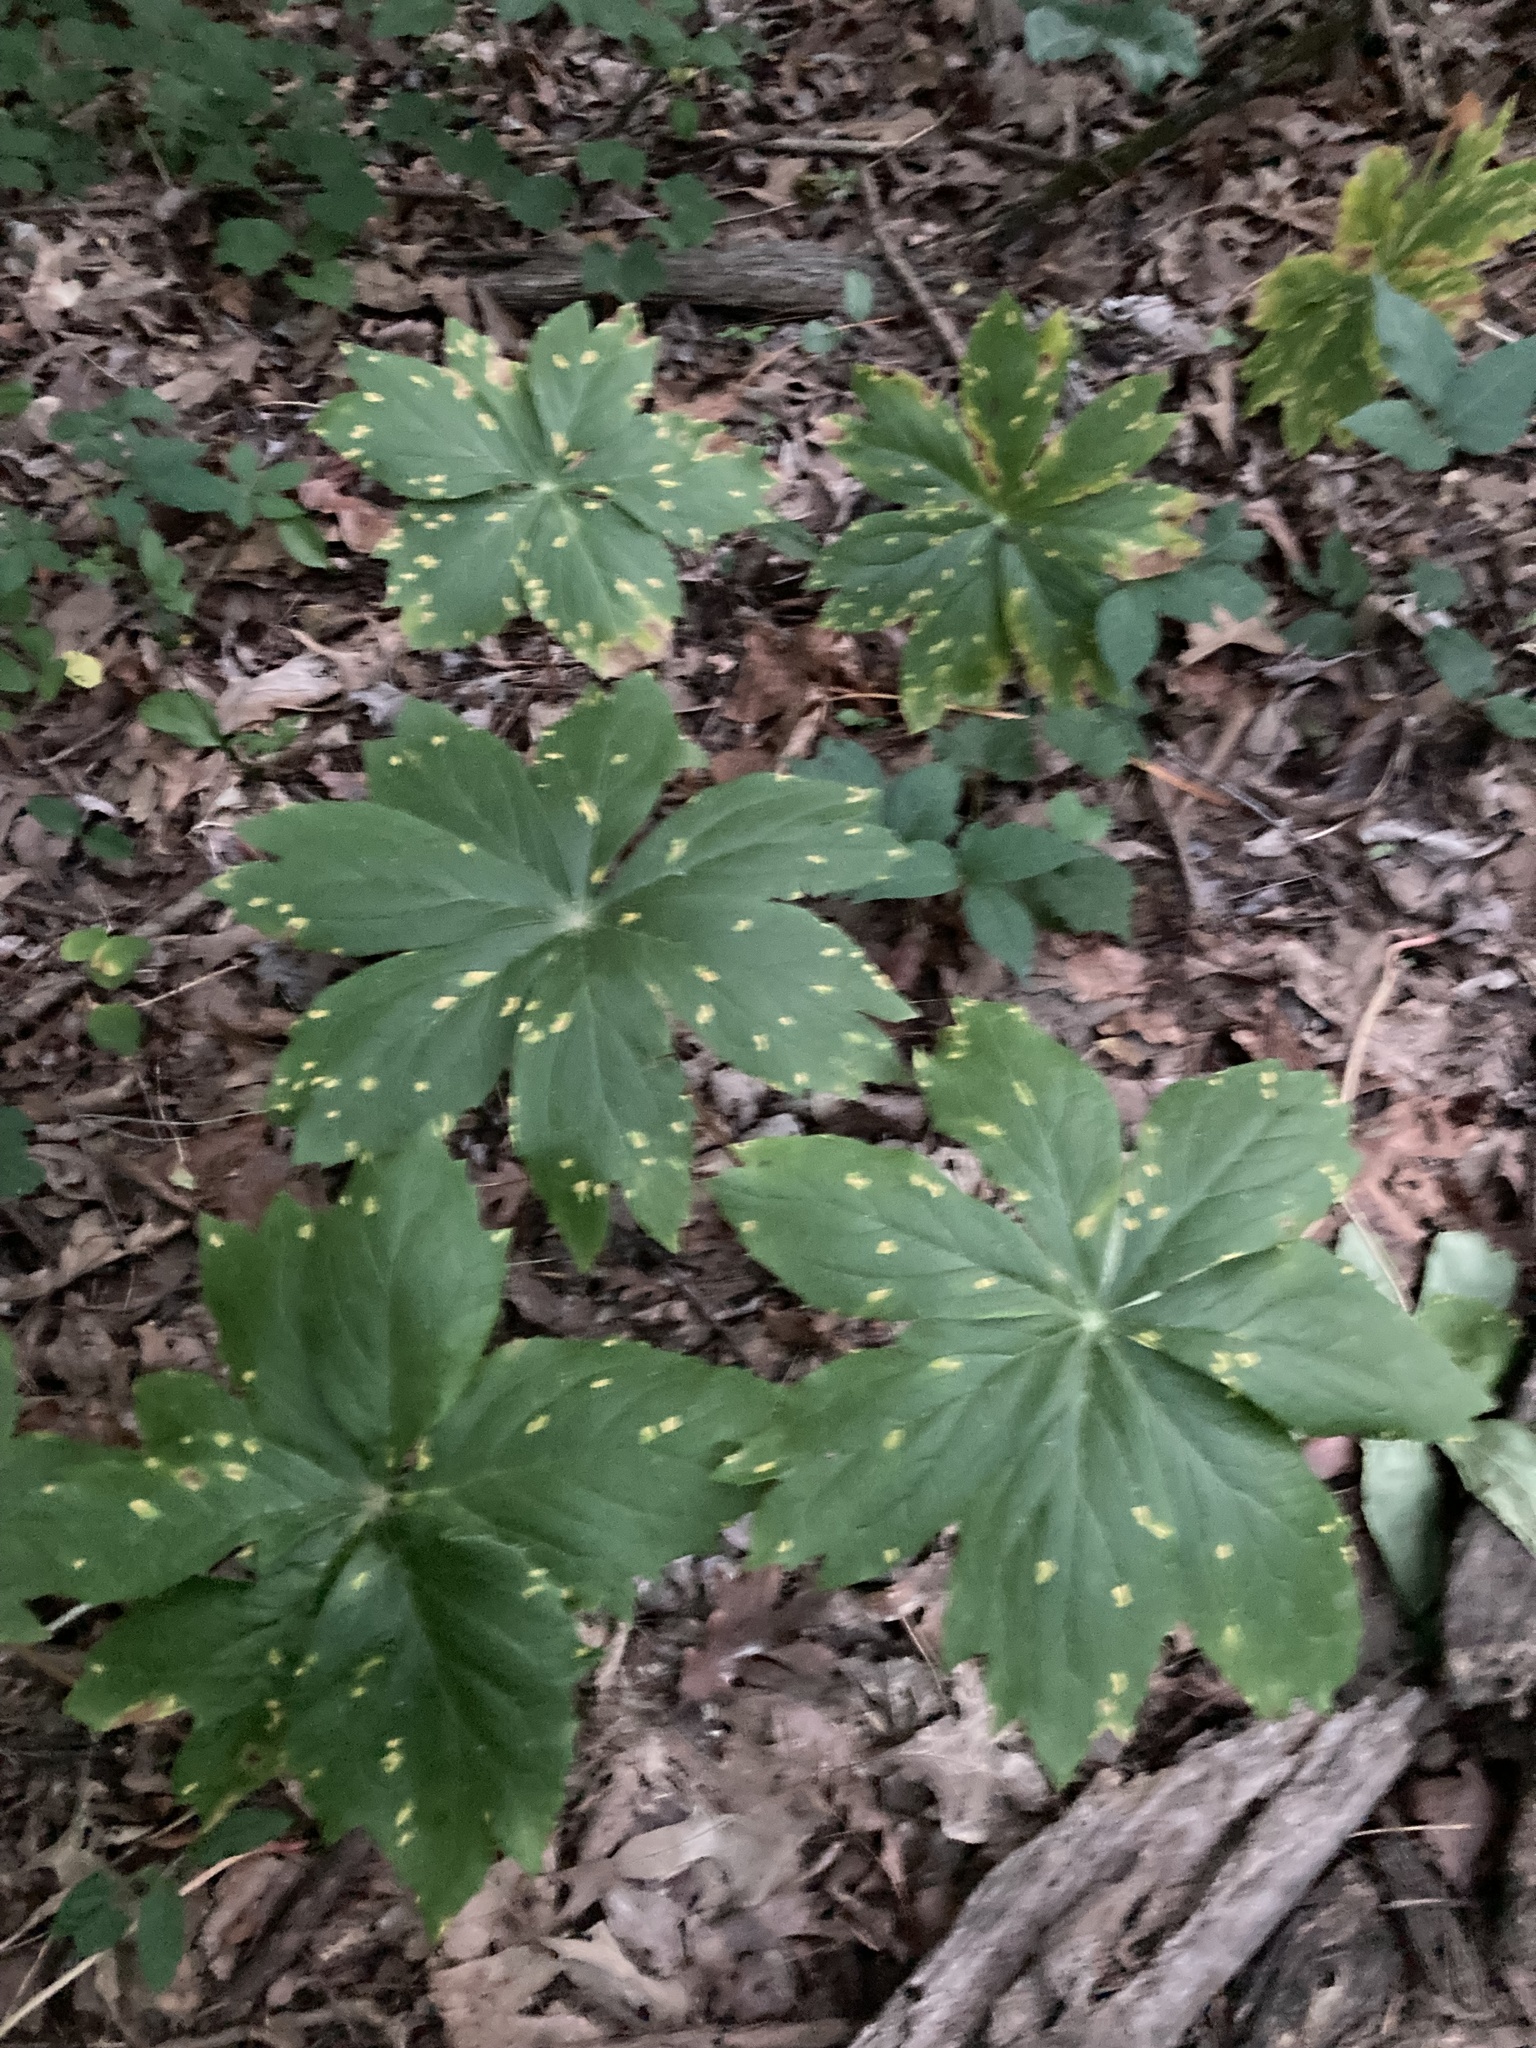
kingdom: Plantae
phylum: Tracheophyta
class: Magnoliopsida
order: Ranunculales
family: Berberidaceae
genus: Podophyllum
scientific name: Podophyllum peltatum
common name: Wild mandrake
